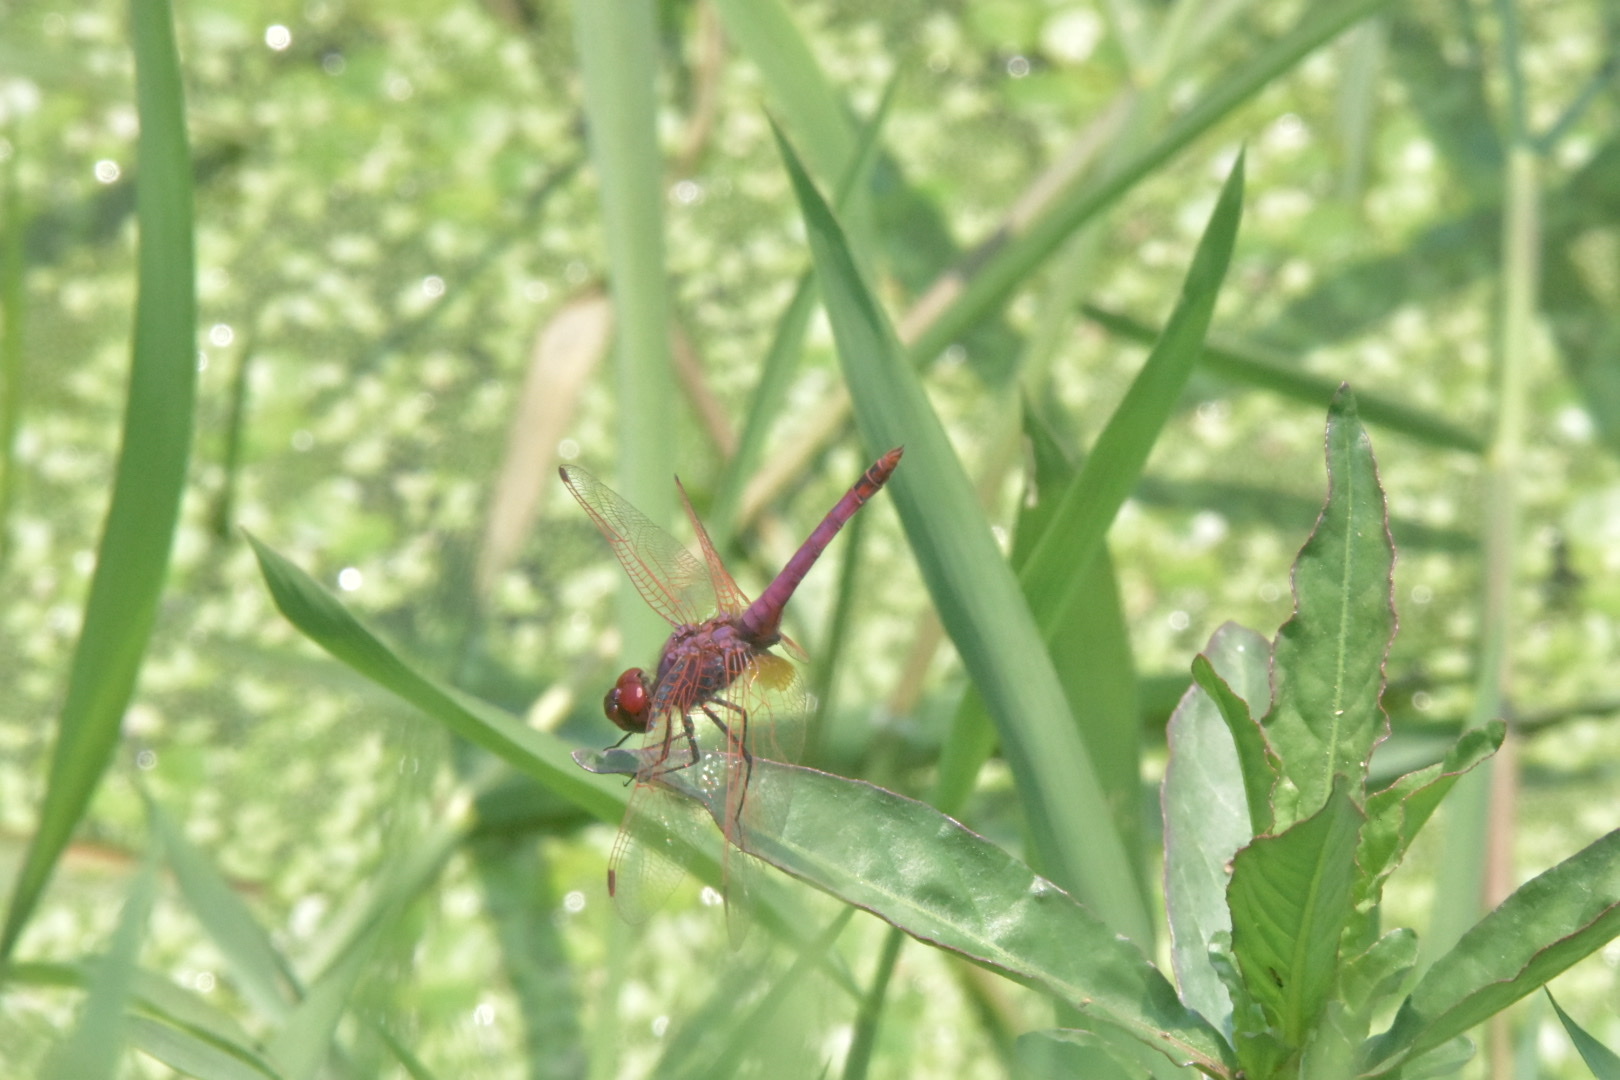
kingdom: Animalia
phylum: Arthropoda
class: Insecta
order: Odonata
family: Libellulidae
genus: Trithemis
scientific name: Trithemis annulata
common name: Violet dropwing
